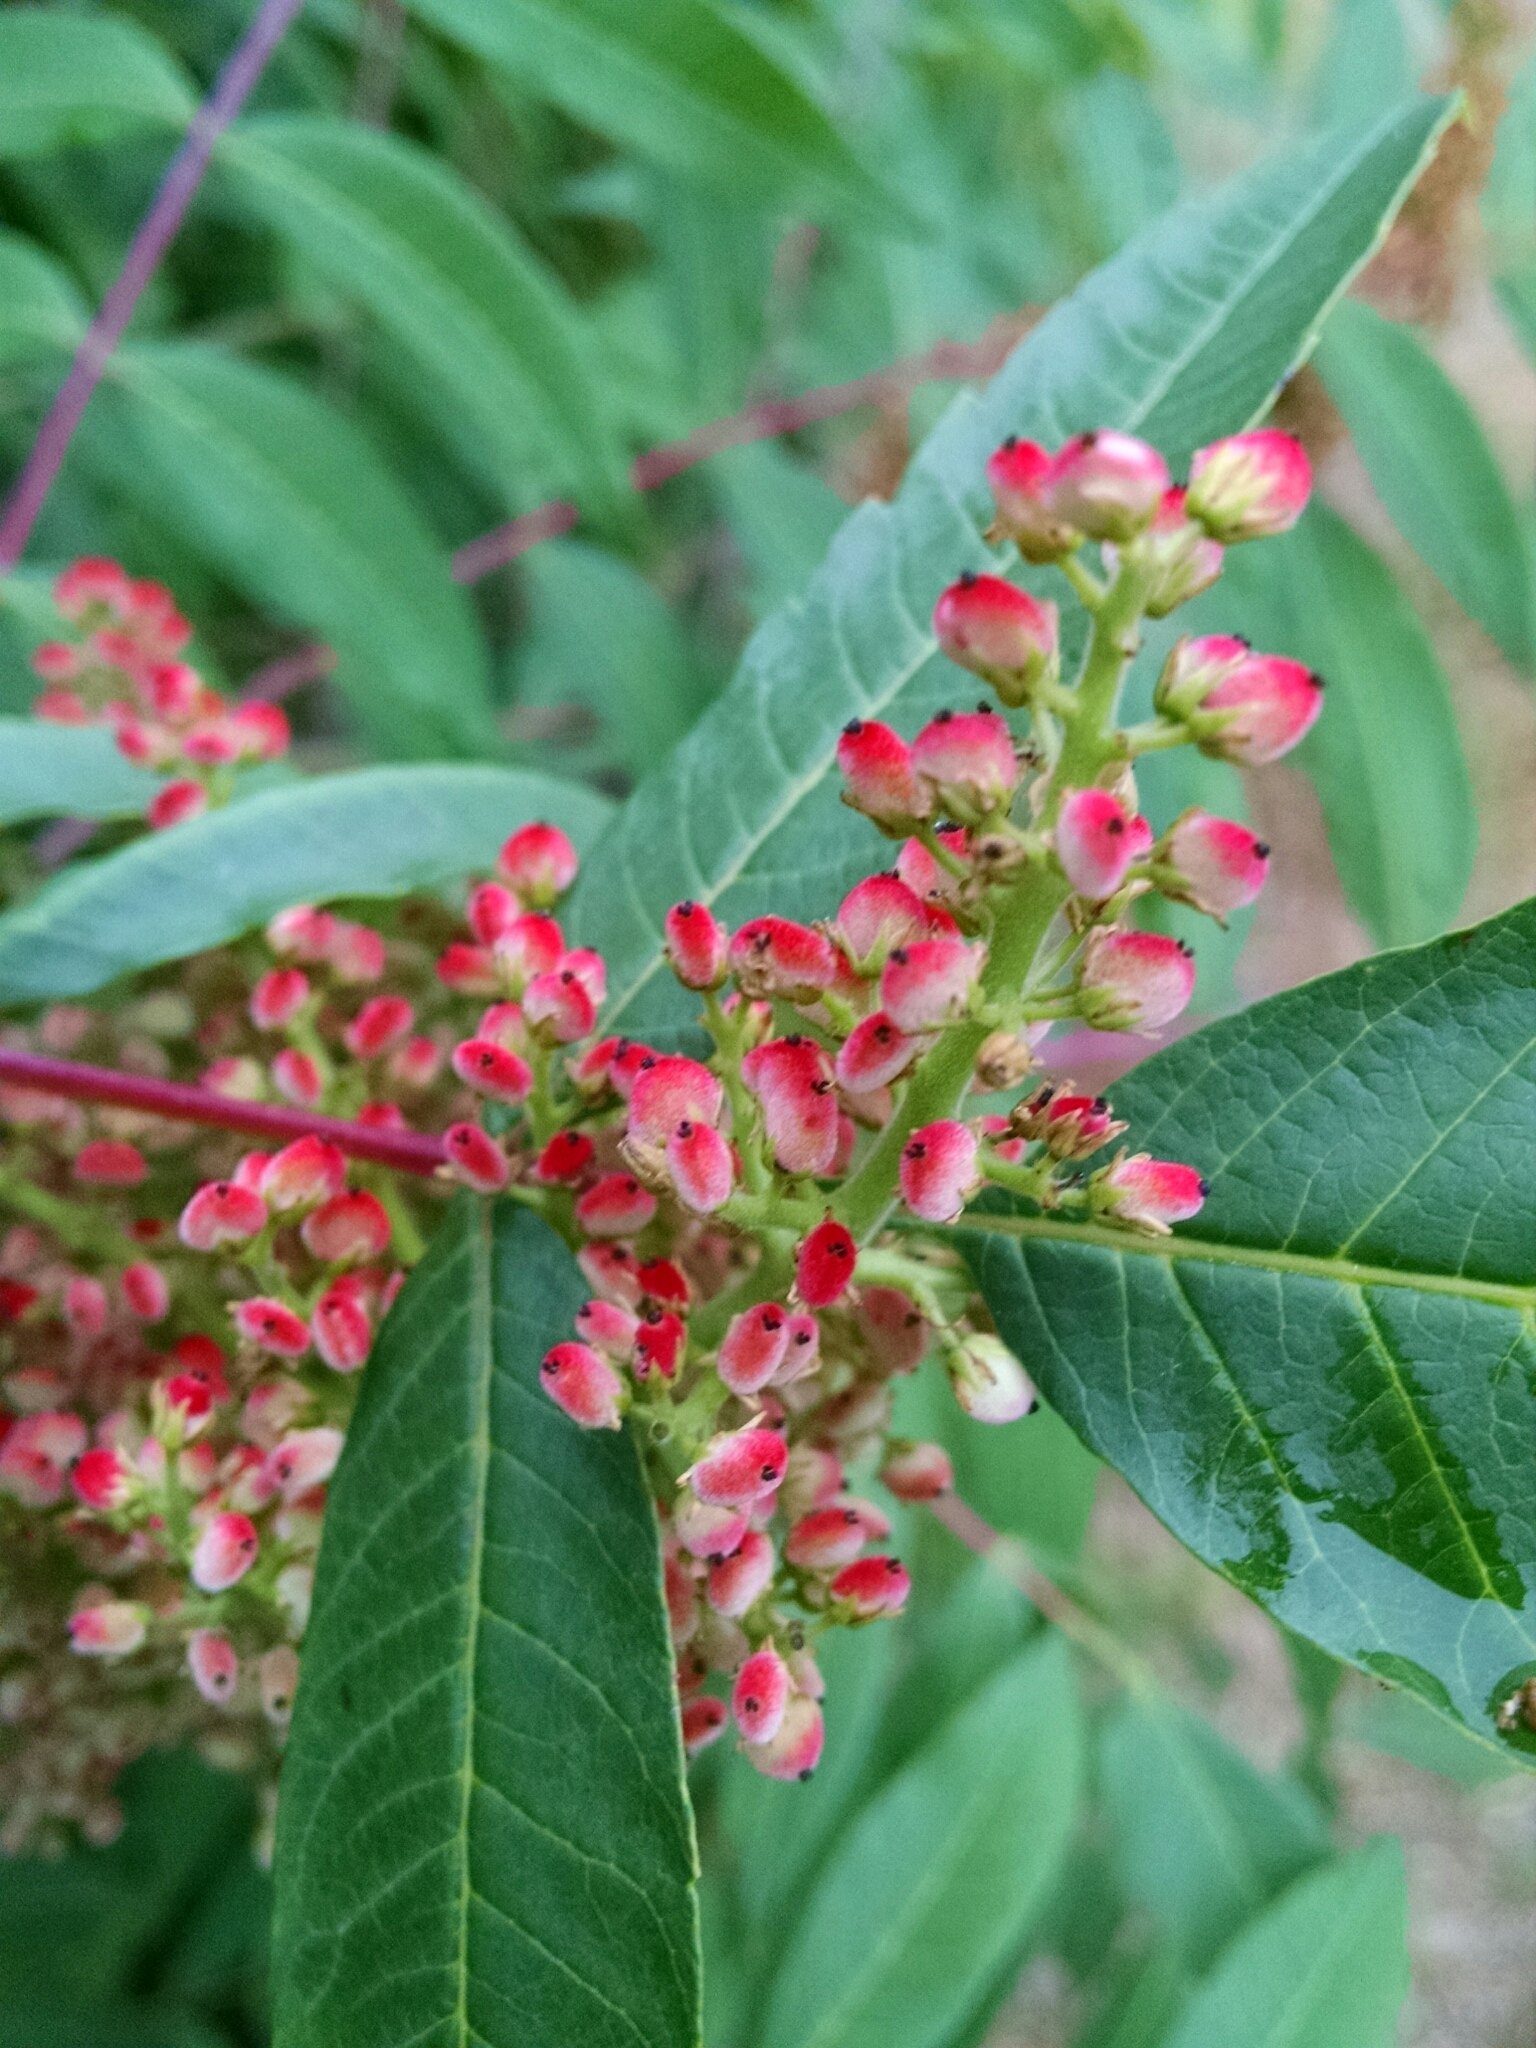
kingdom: Plantae
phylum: Tracheophyta
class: Magnoliopsida
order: Sapindales
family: Anacardiaceae
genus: Rhus
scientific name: Rhus glabra
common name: Scarlet sumac
